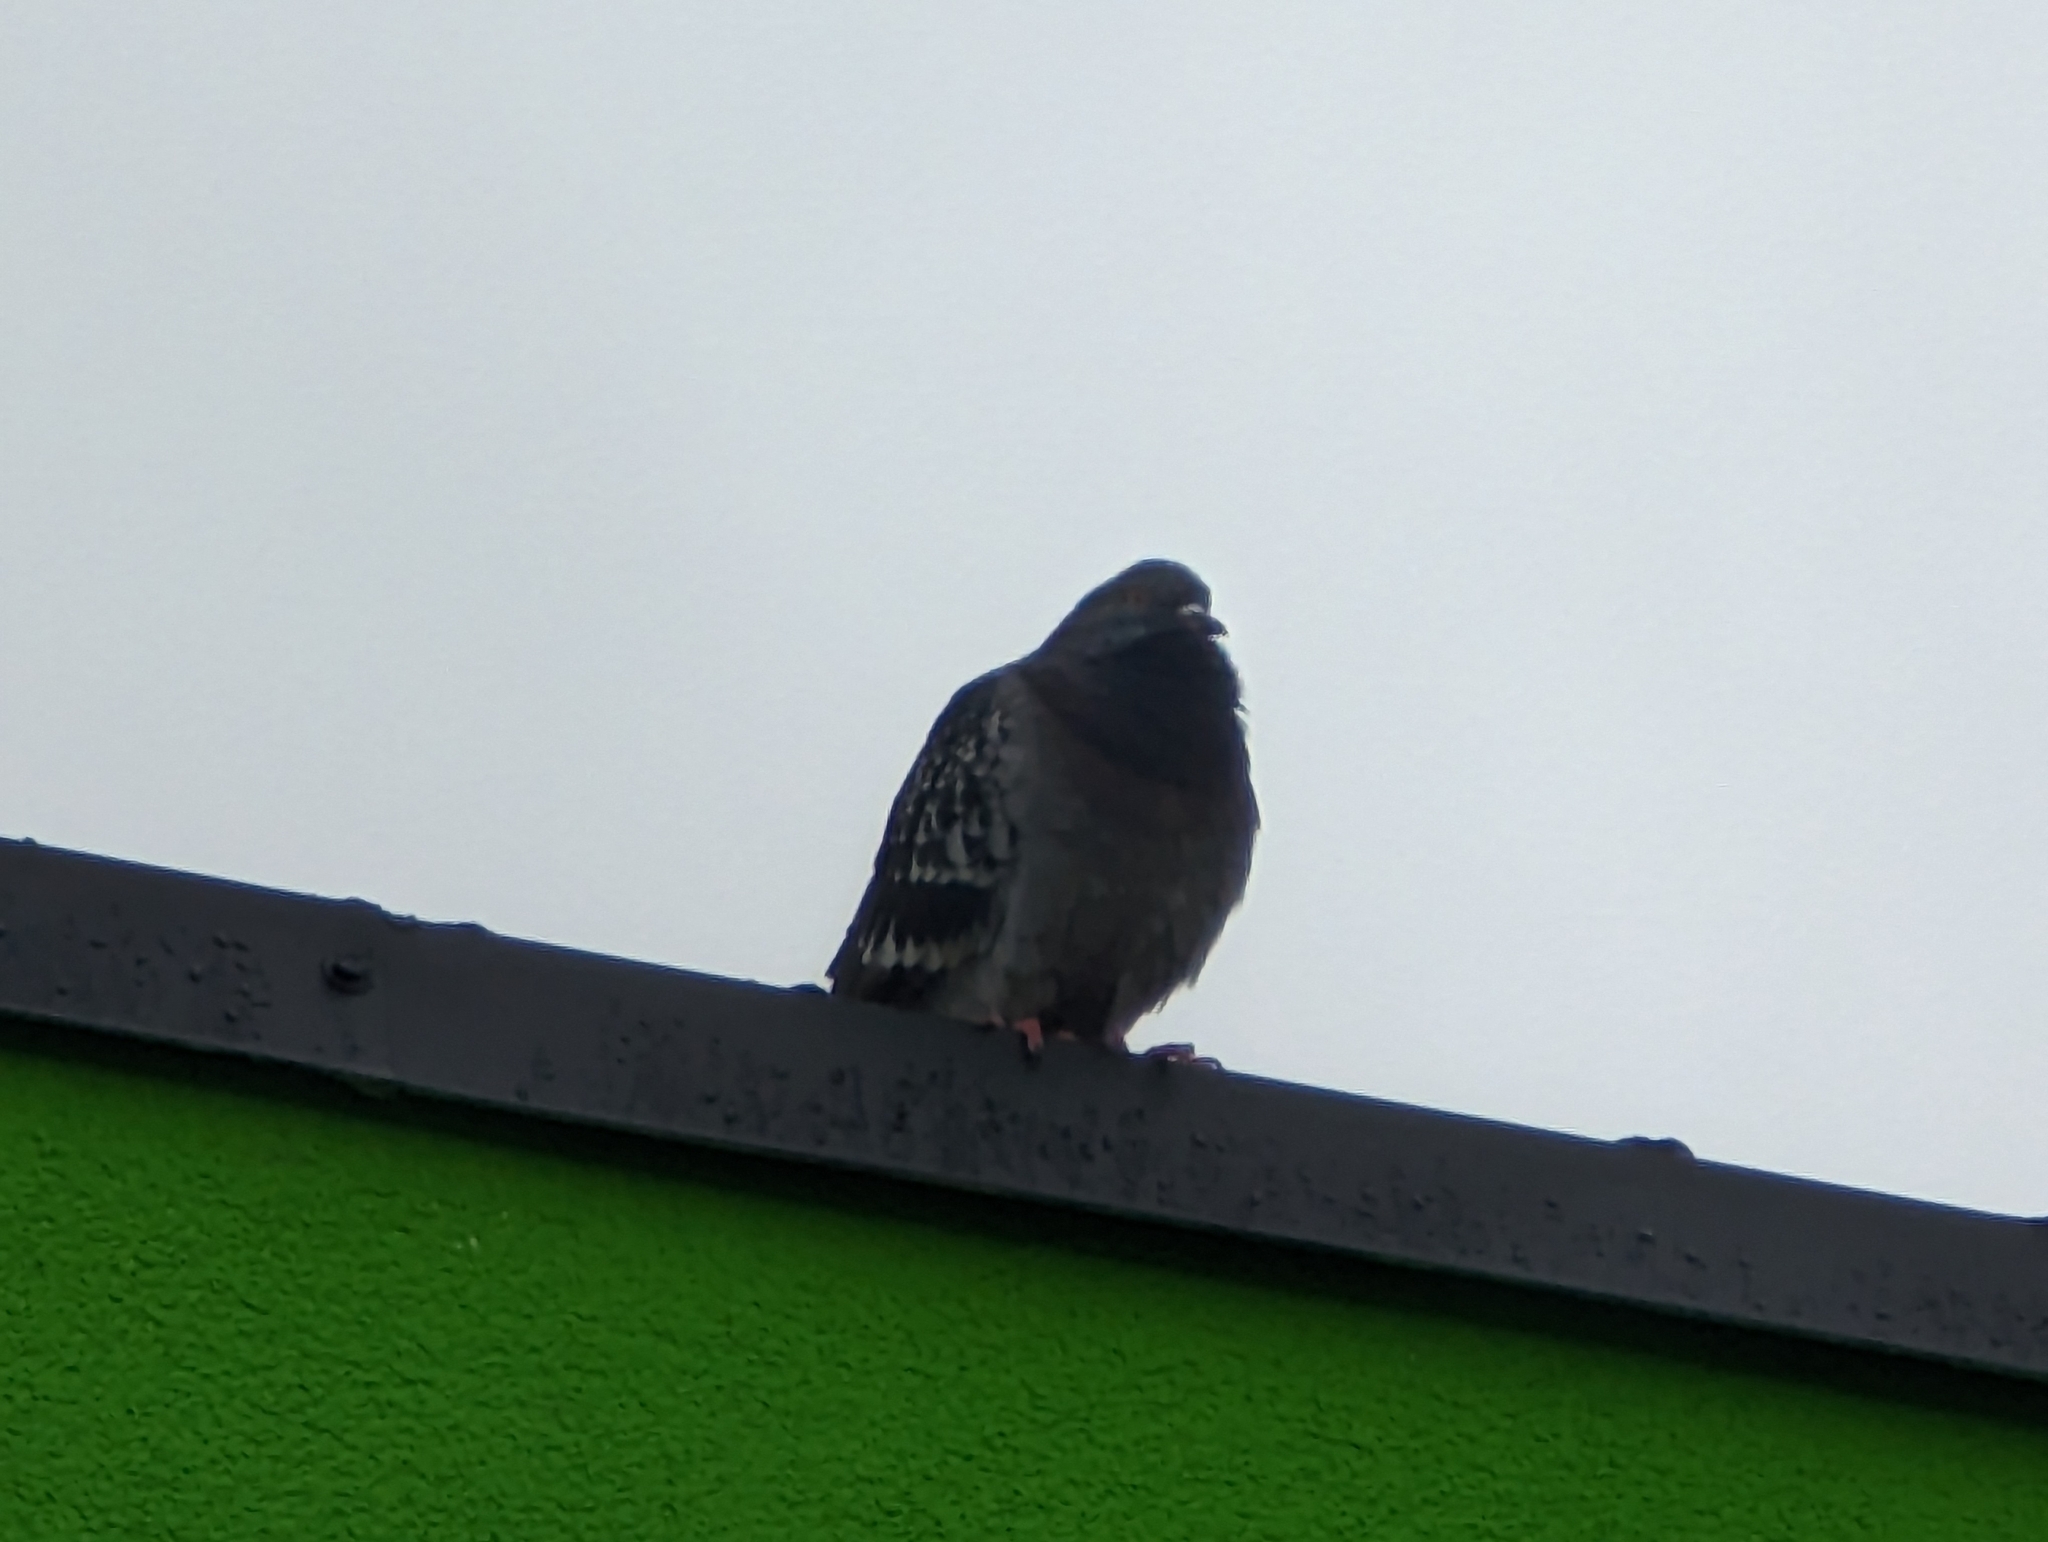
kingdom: Animalia
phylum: Chordata
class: Aves
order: Columbiformes
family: Columbidae
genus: Columba
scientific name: Columba livia
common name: Rock pigeon
